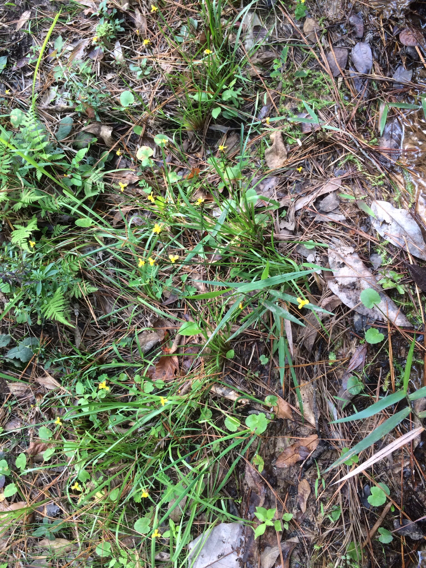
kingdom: Plantae
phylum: Tracheophyta
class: Liliopsida
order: Poales
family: Xyridaceae
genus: Xyris
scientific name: Xyris difformis
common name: Bog yellow-eyed-grass
